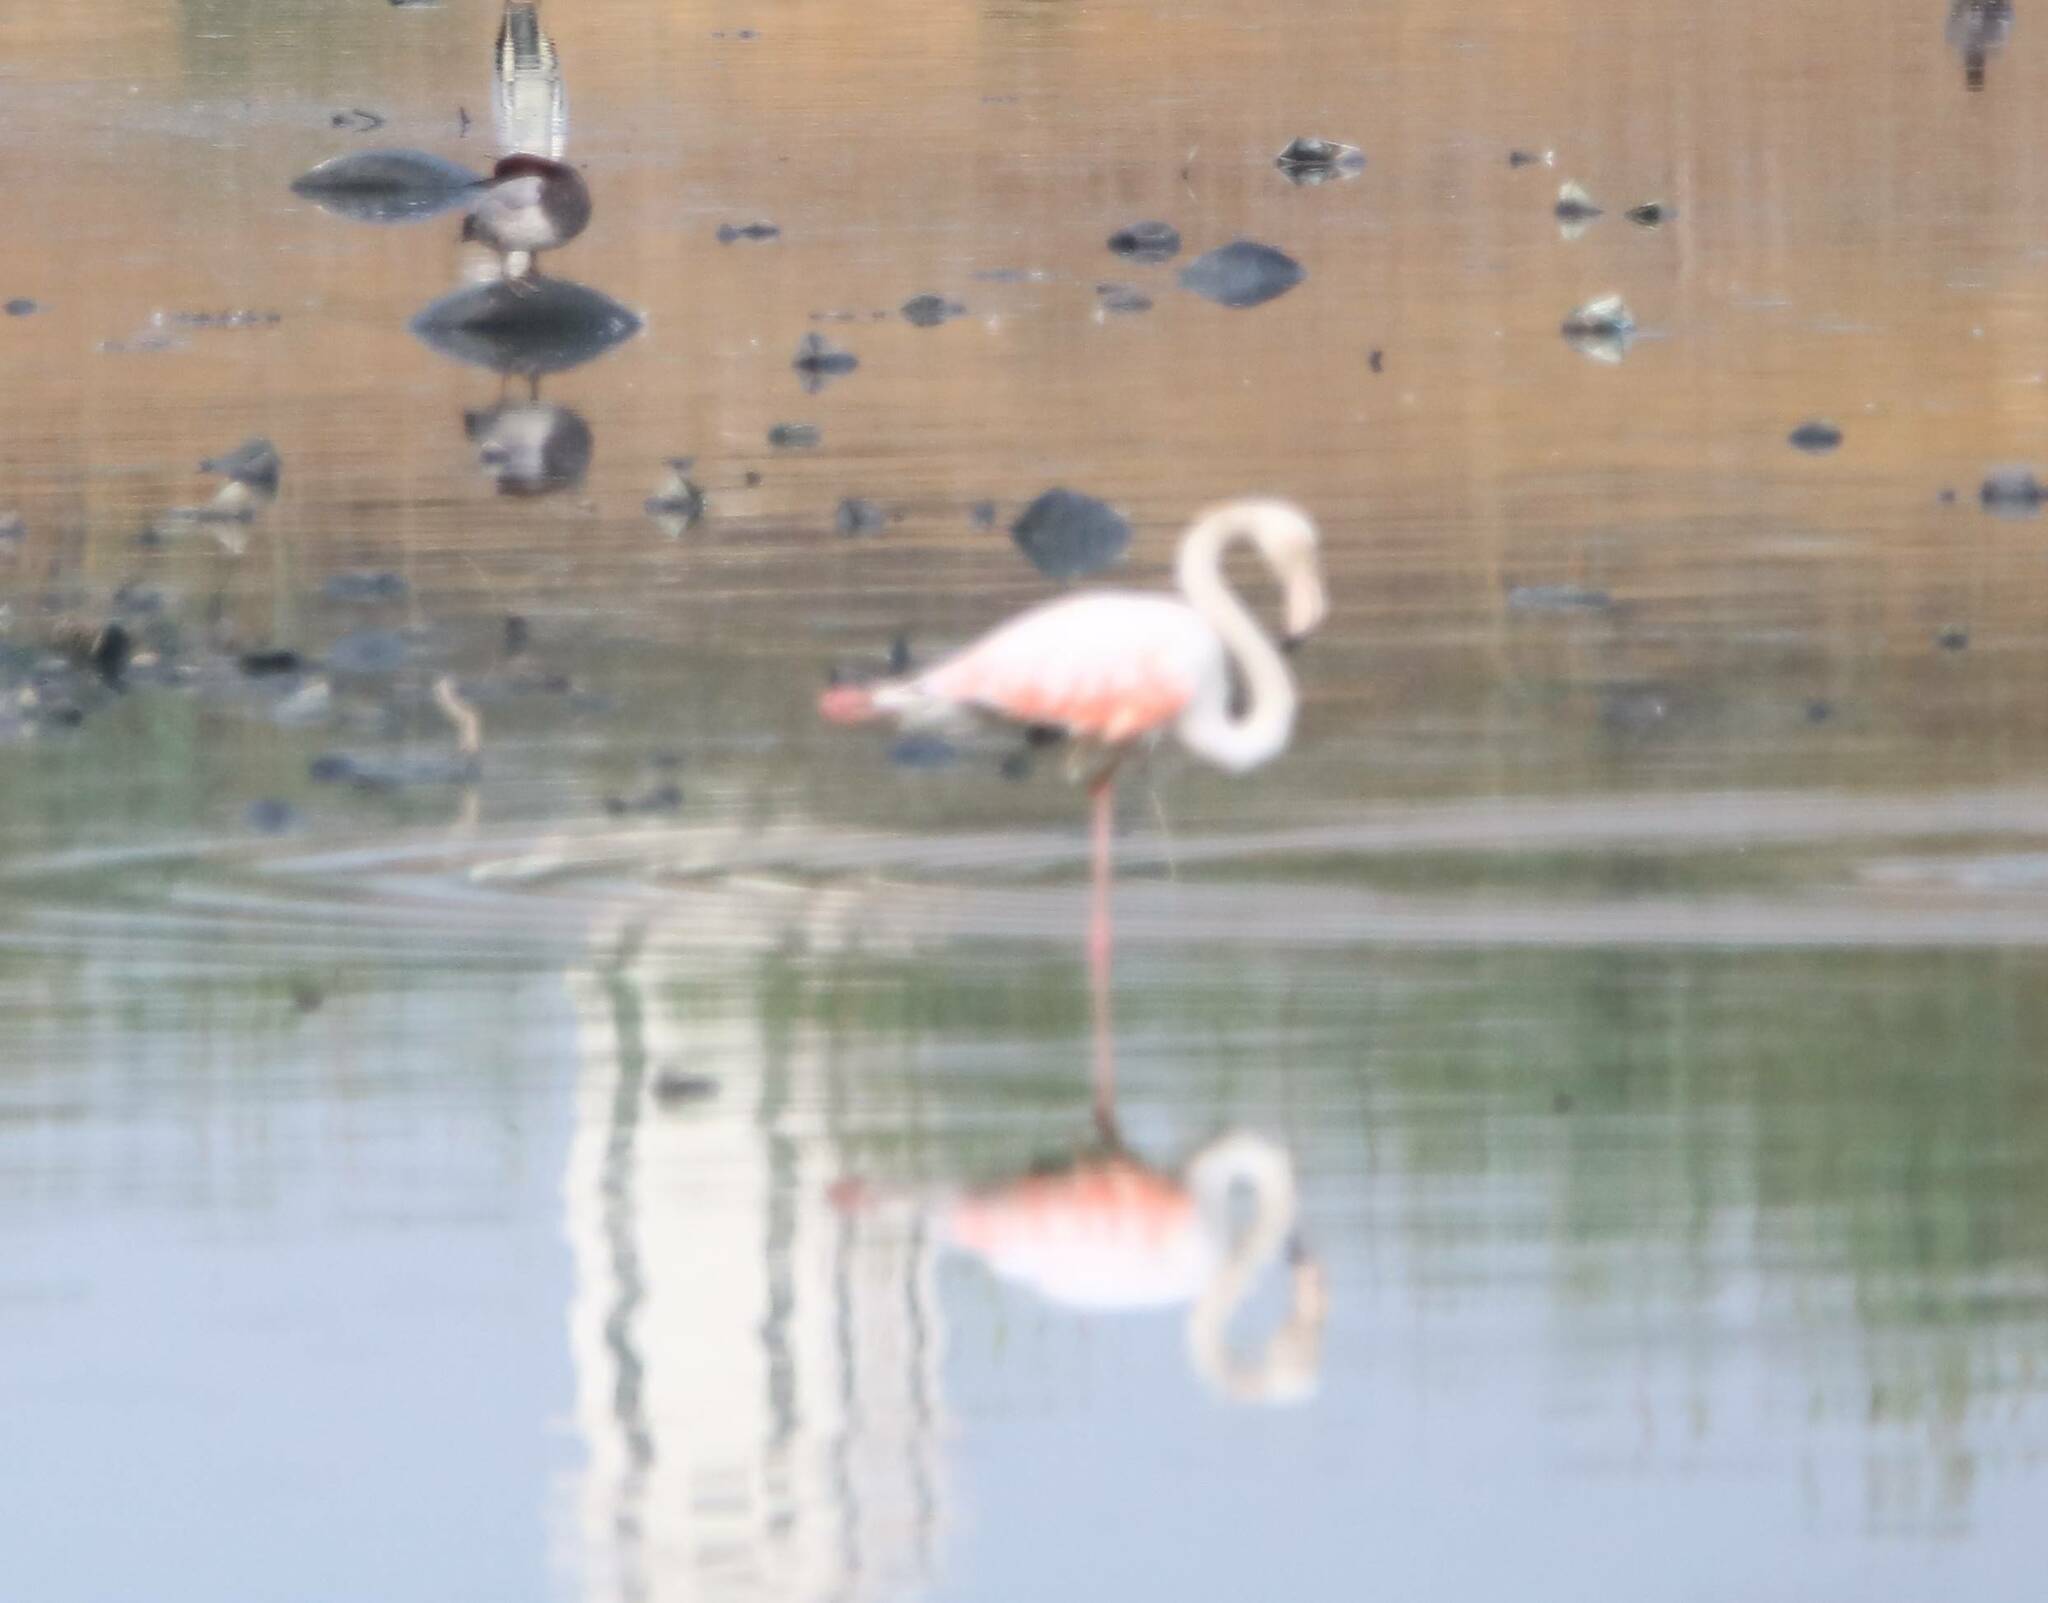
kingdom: Animalia
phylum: Chordata
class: Aves
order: Phoenicopteriformes
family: Phoenicopteridae
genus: Phoenicopterus
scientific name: Phoenicopterus roseus
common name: Greater flamingo
